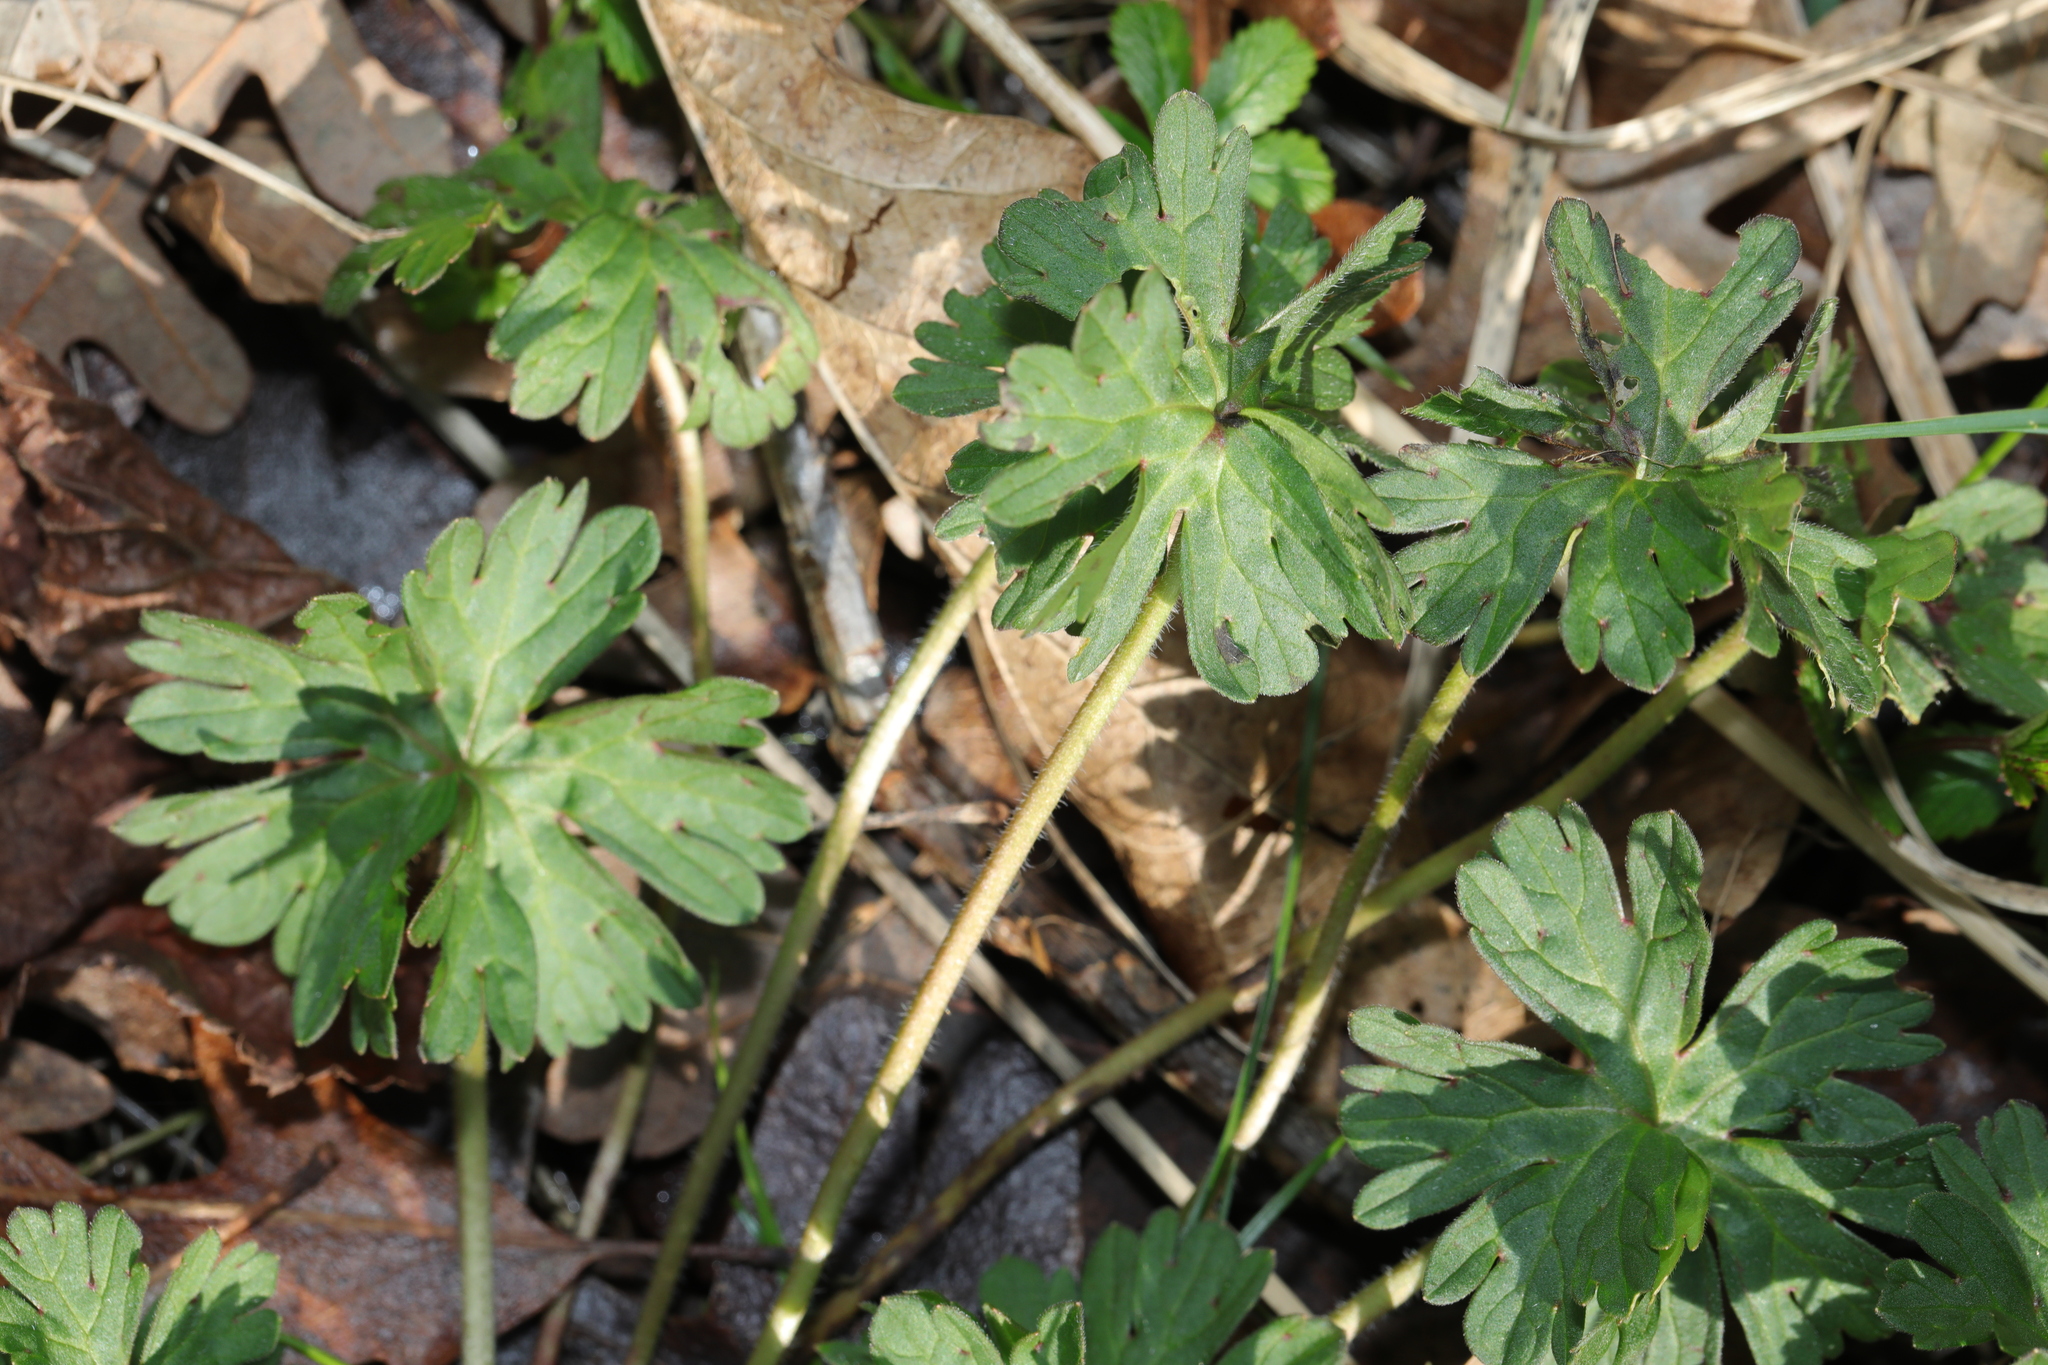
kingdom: Plantae
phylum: Tracheophyta
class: Magnoliopsida
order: Geraniales
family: Geraniaceae
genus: Geranium
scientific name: Geranium dissectum
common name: Cut-leaved crane's-bill
